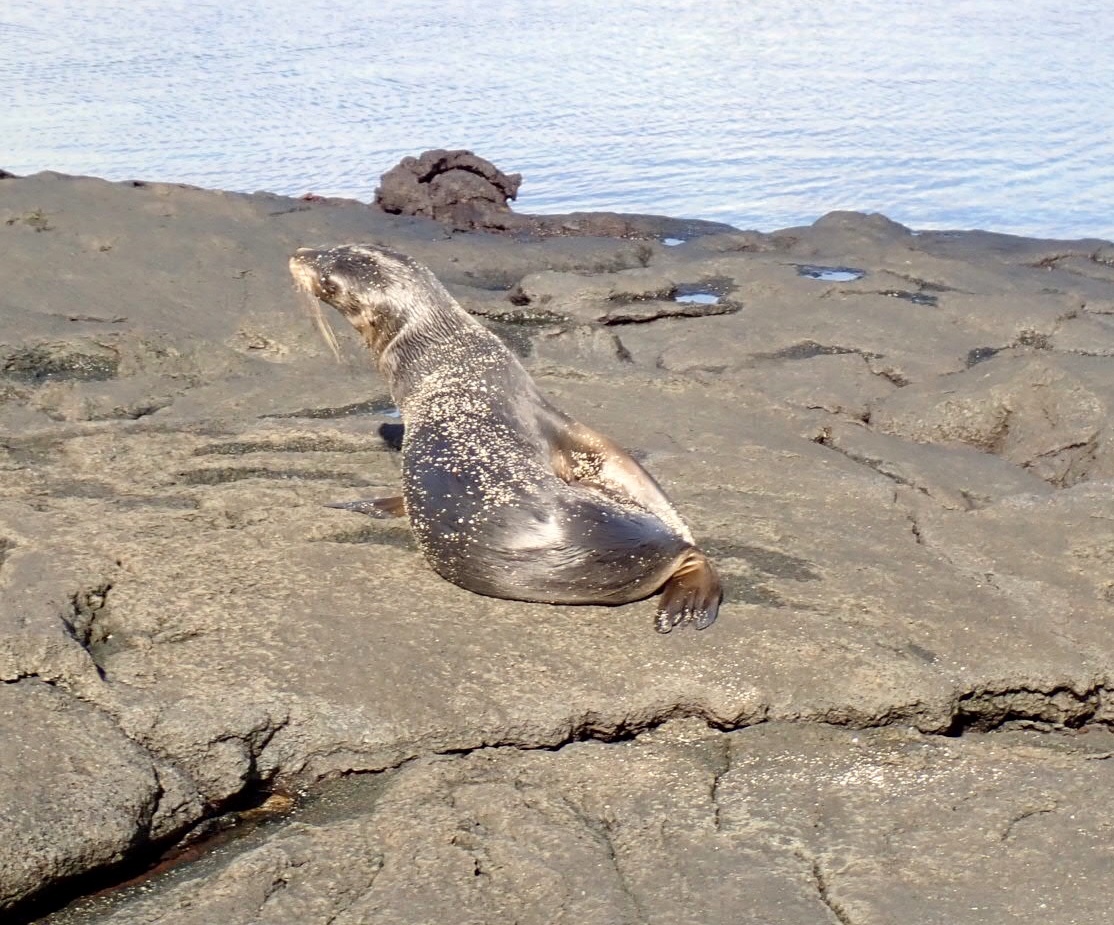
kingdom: Animalia
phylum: Chordata
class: Mammalia
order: Carnivora
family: Otariidae
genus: Zalophus
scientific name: Zalophus wollebaeki
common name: Galapagos sea lion
